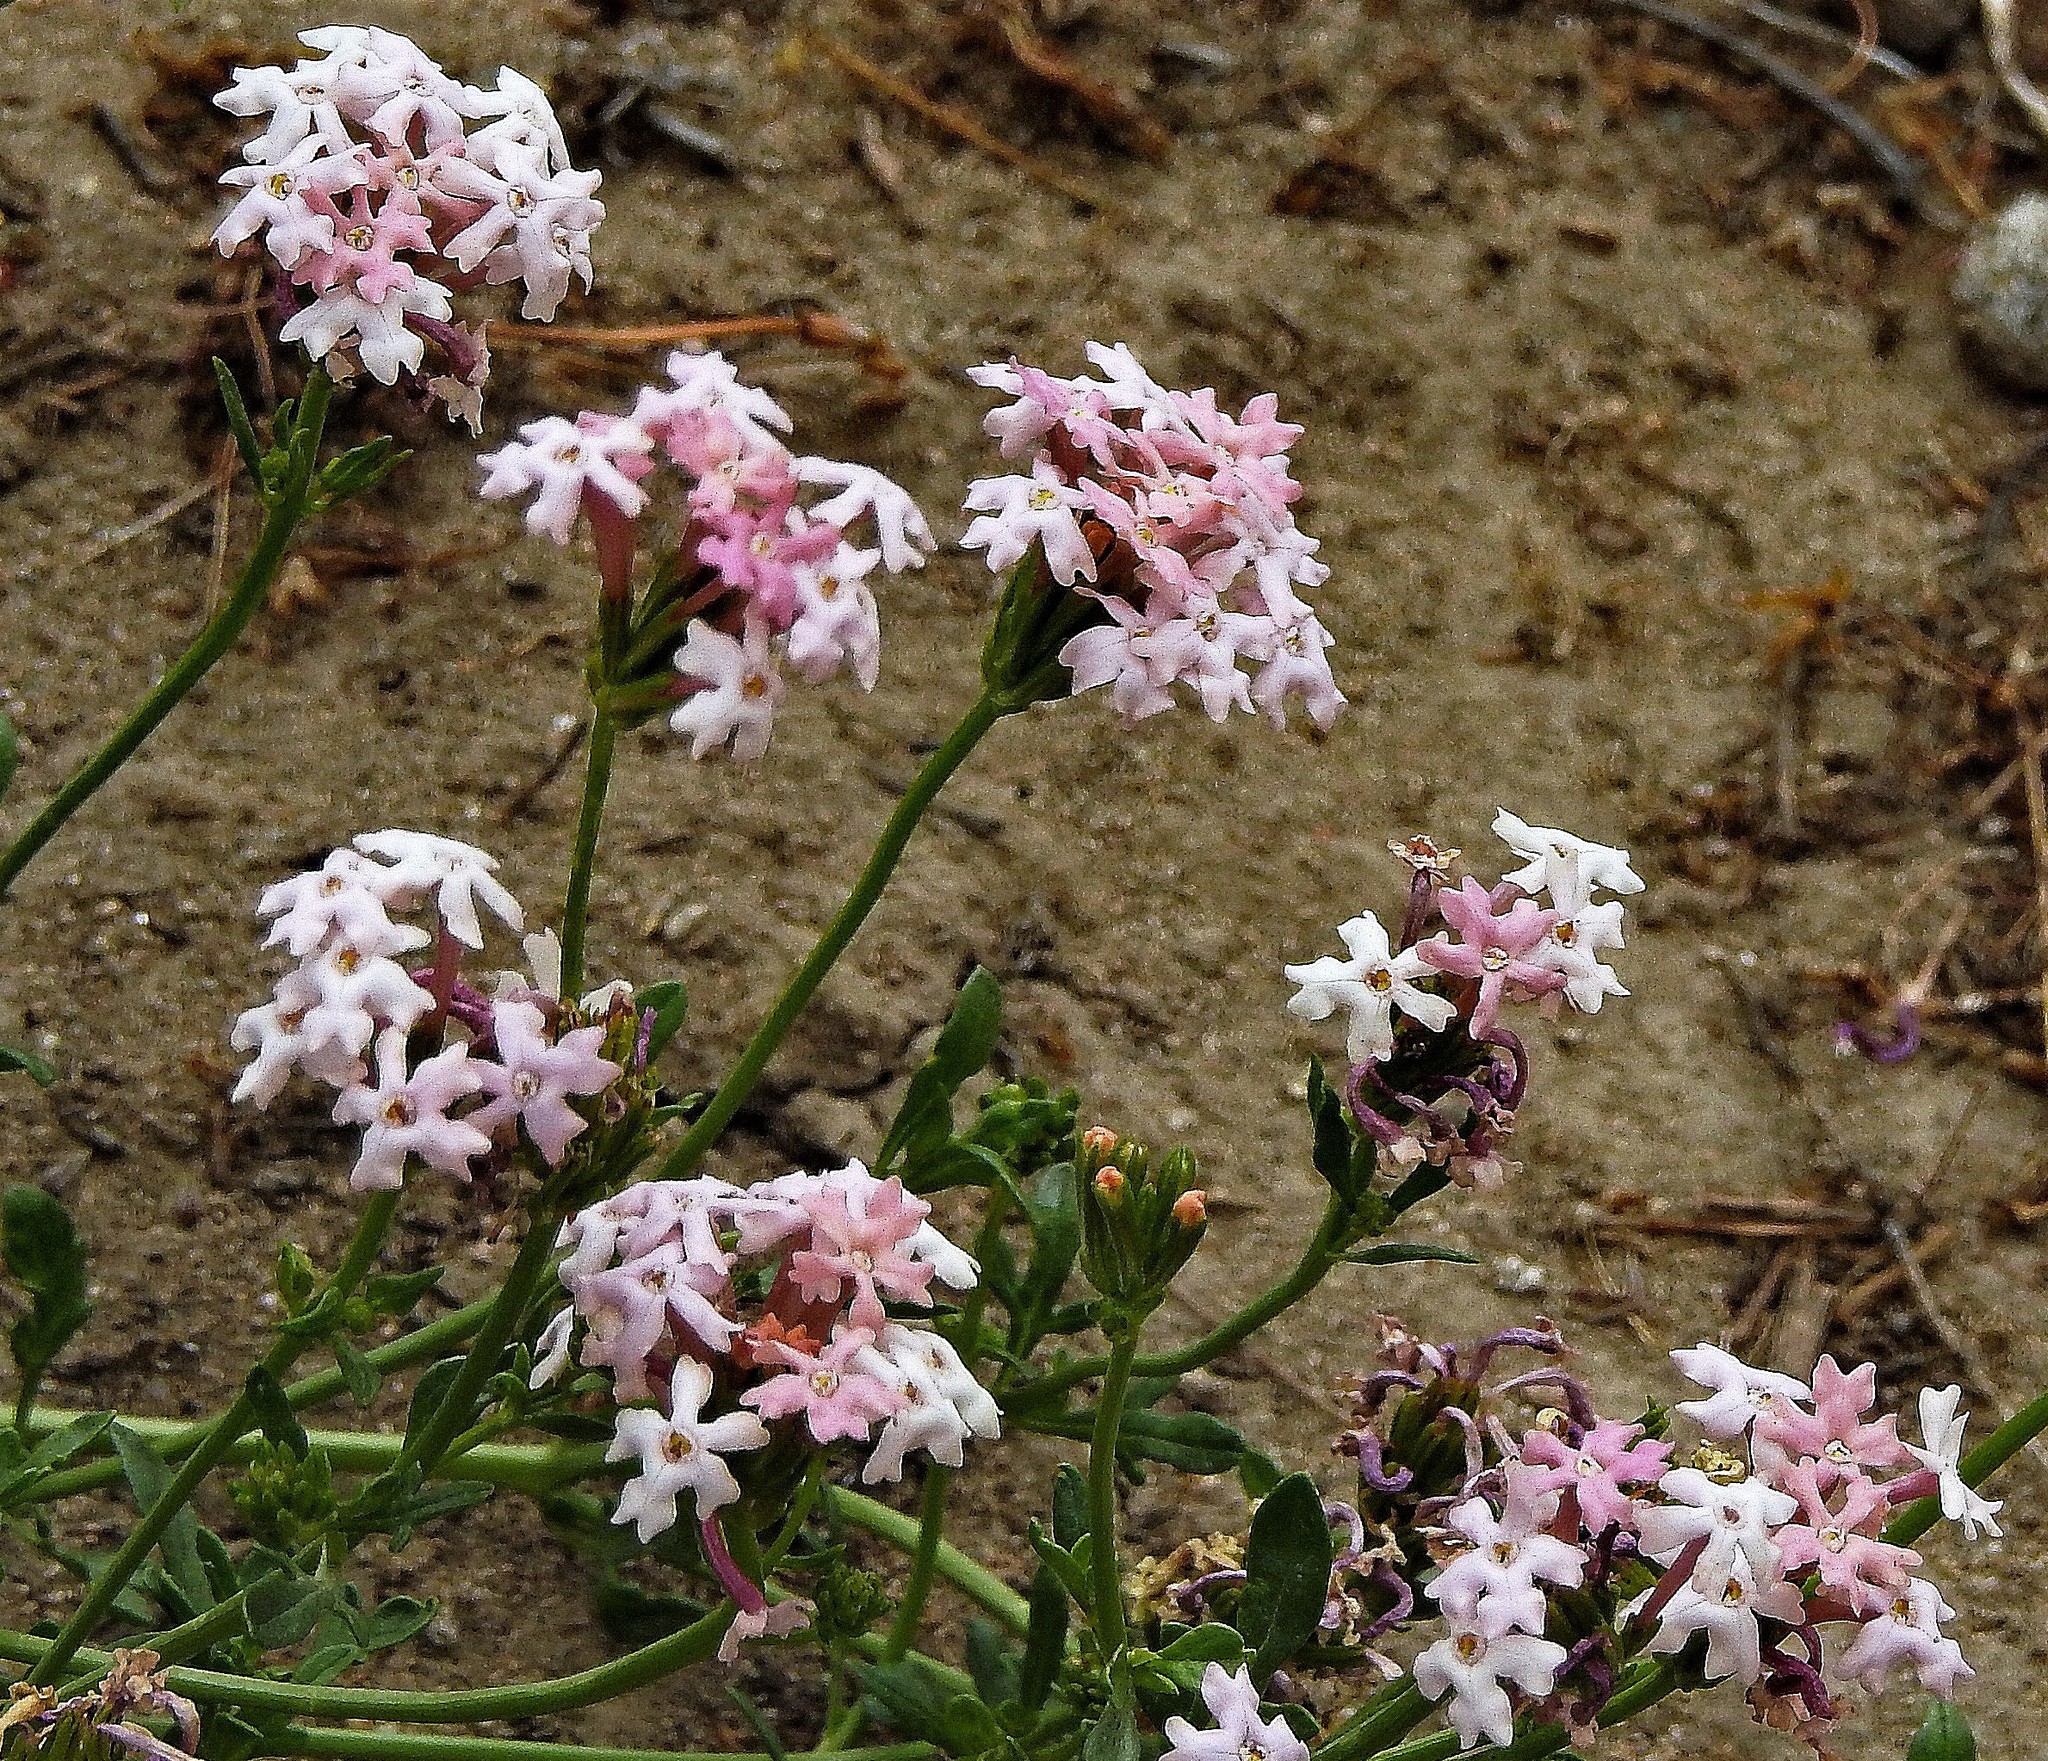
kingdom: Plantae
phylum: Tracheophyta
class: Magnoliopsida
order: Lamiales
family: Verbenaceae
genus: Verbena
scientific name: Verbena aurantiaca
